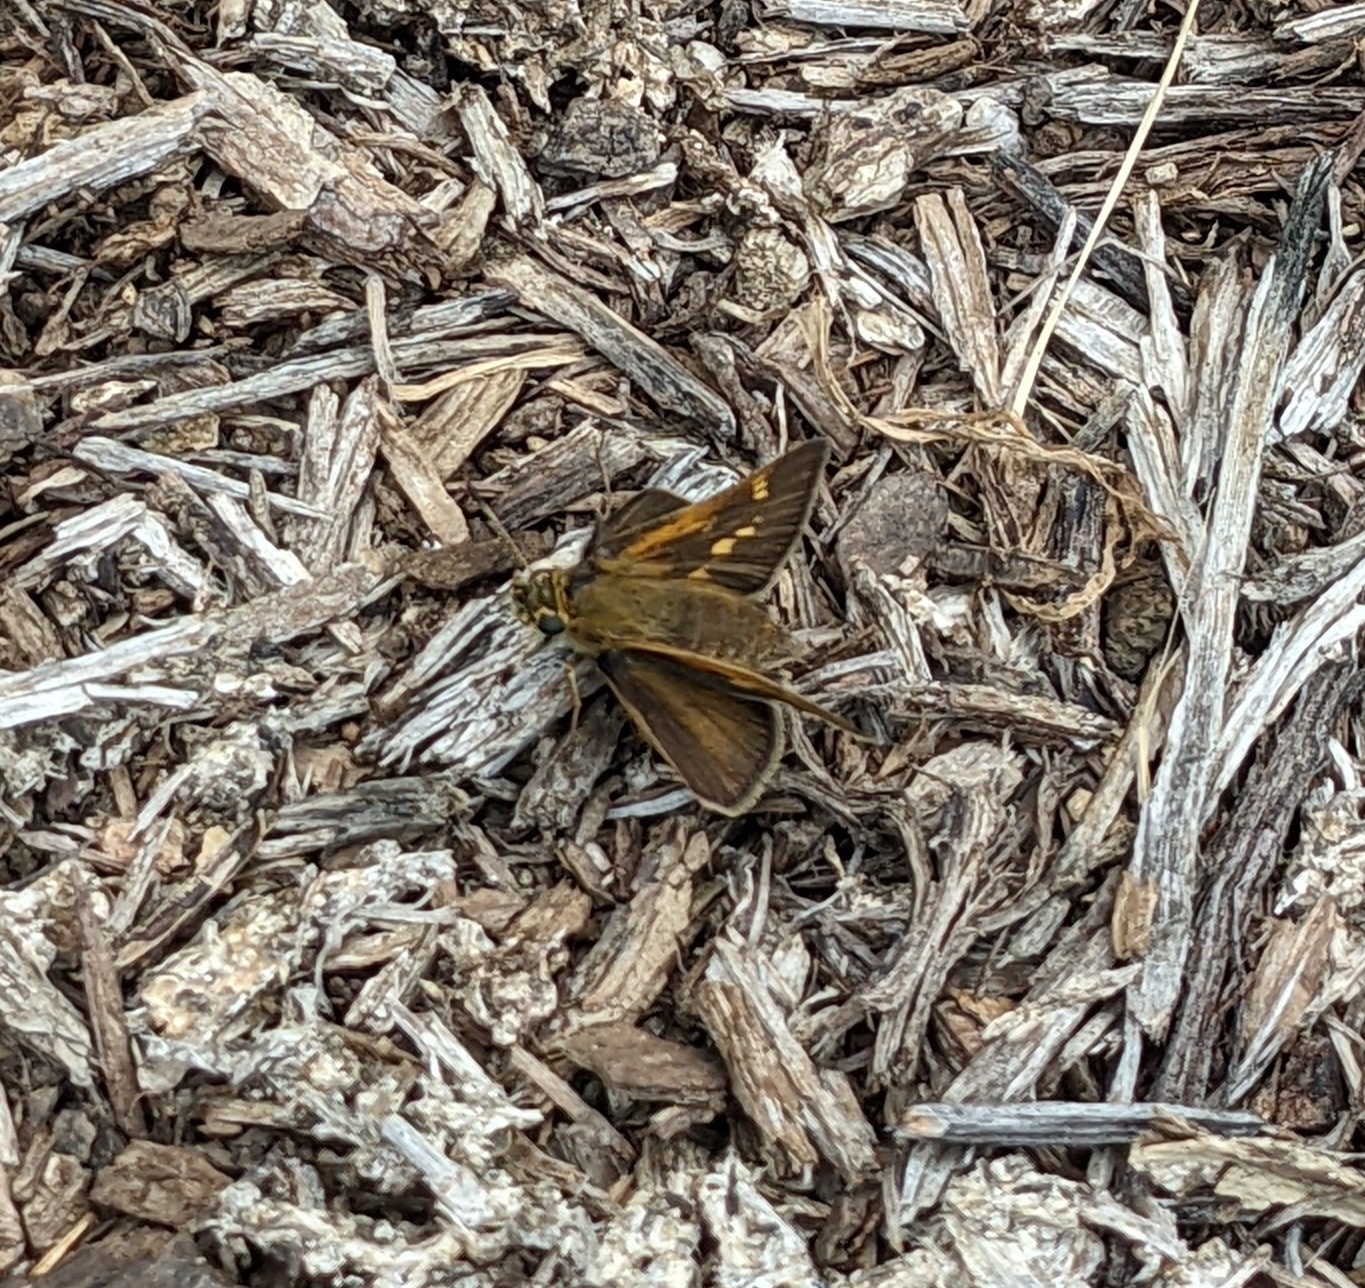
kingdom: Animalia
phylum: Arthropoda
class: Insecta
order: Lepidoptera
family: Hesperiidae
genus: Polites
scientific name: Polites themistocles
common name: Tawny-edged skipper
